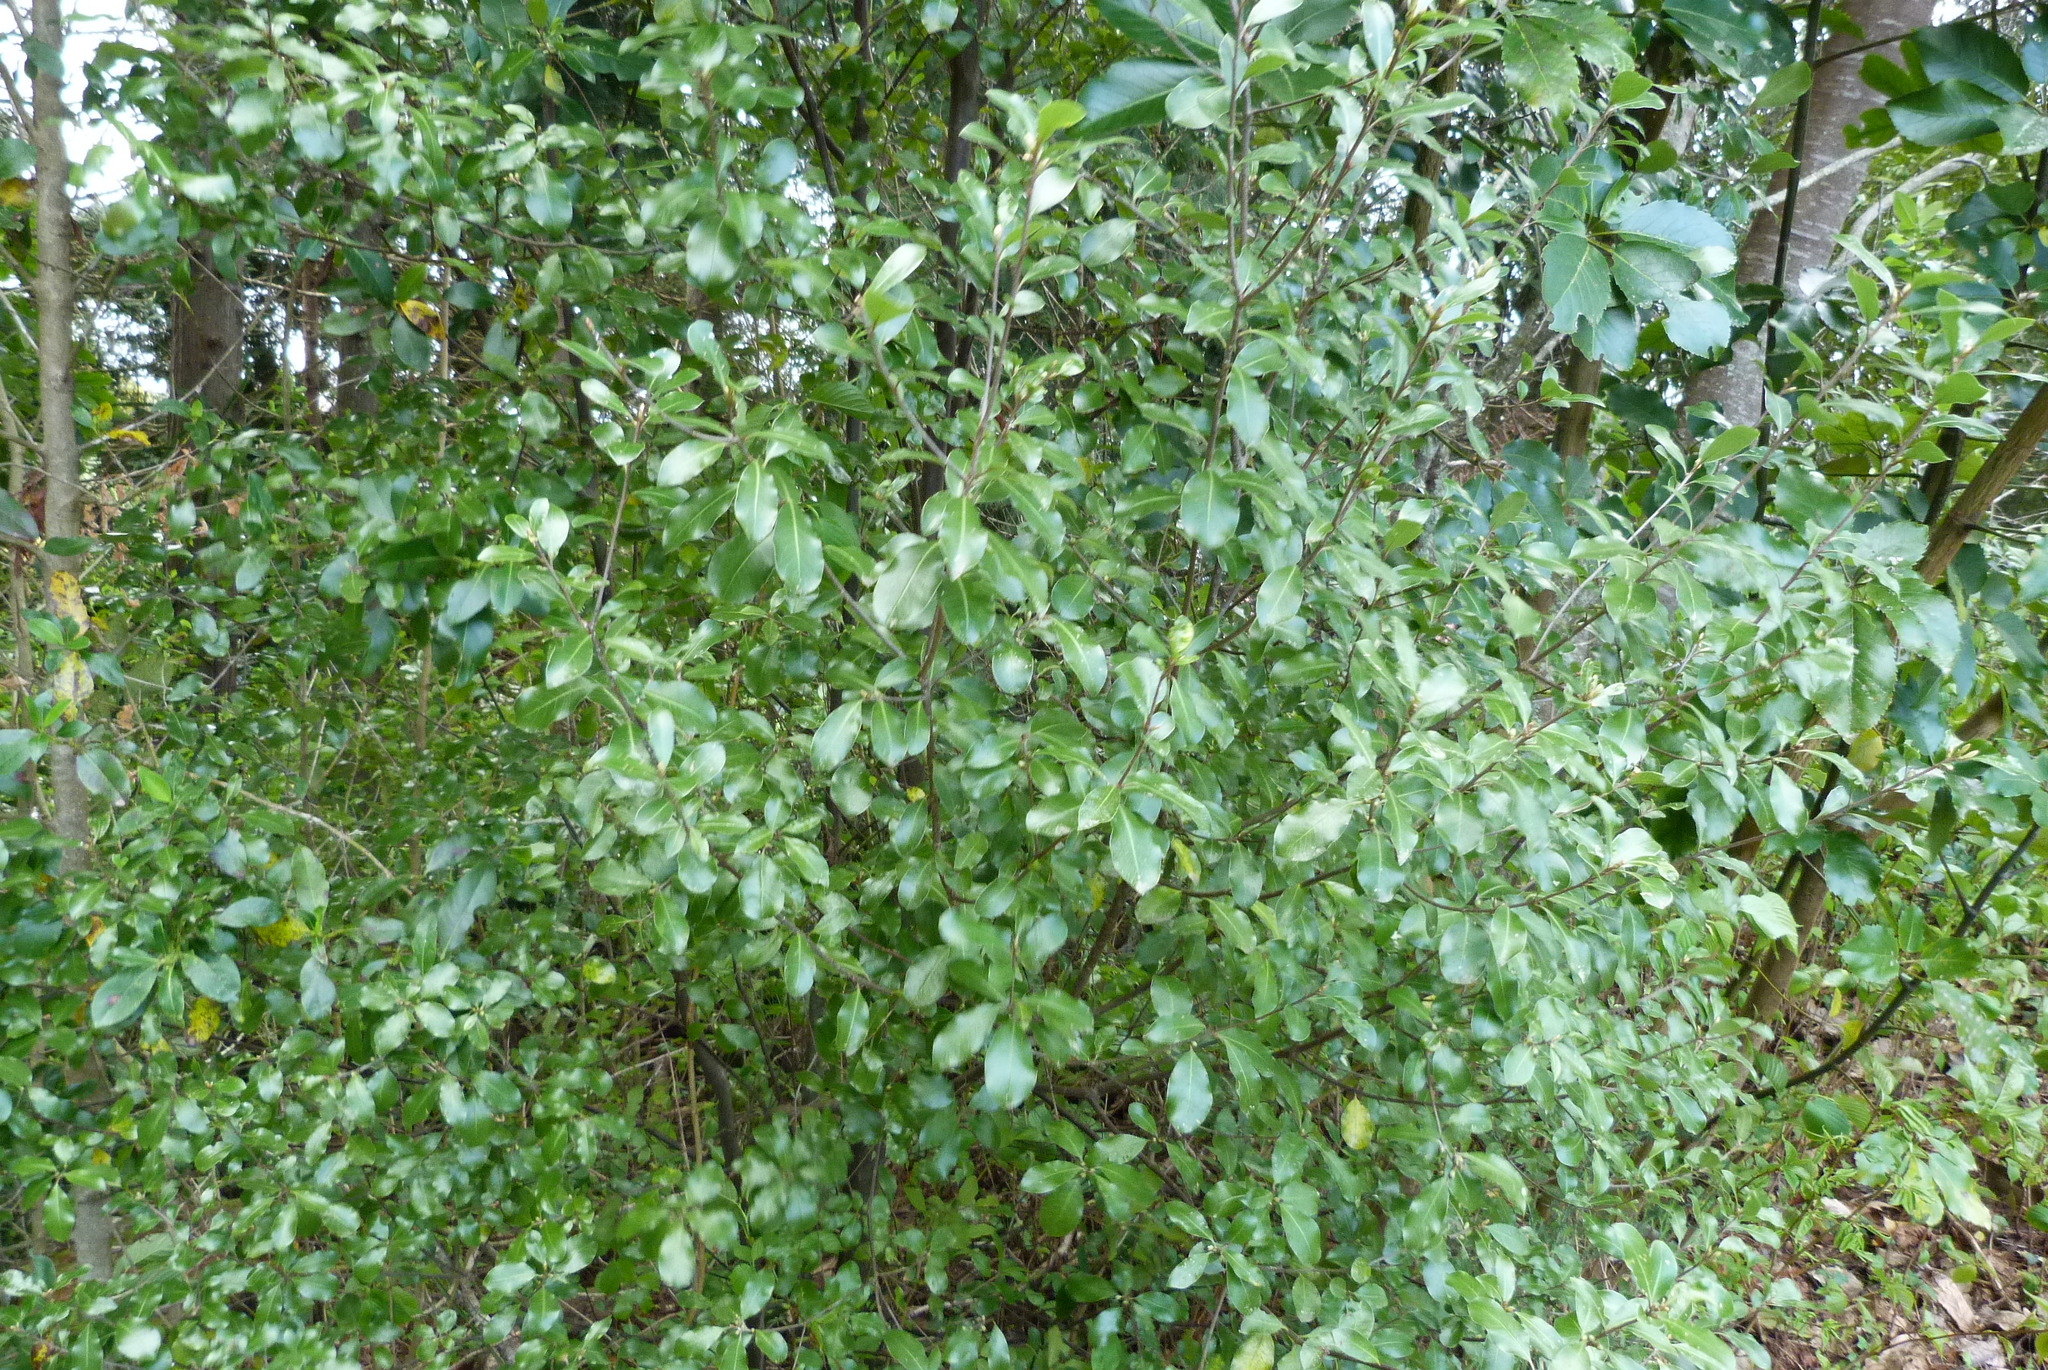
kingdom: Plantae
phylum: Tracheophyta
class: Magnoliopsida
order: Apiales
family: Pittosporaceae
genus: Pittosporum
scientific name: Pittosporum tenuifolium
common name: Kohuhu
